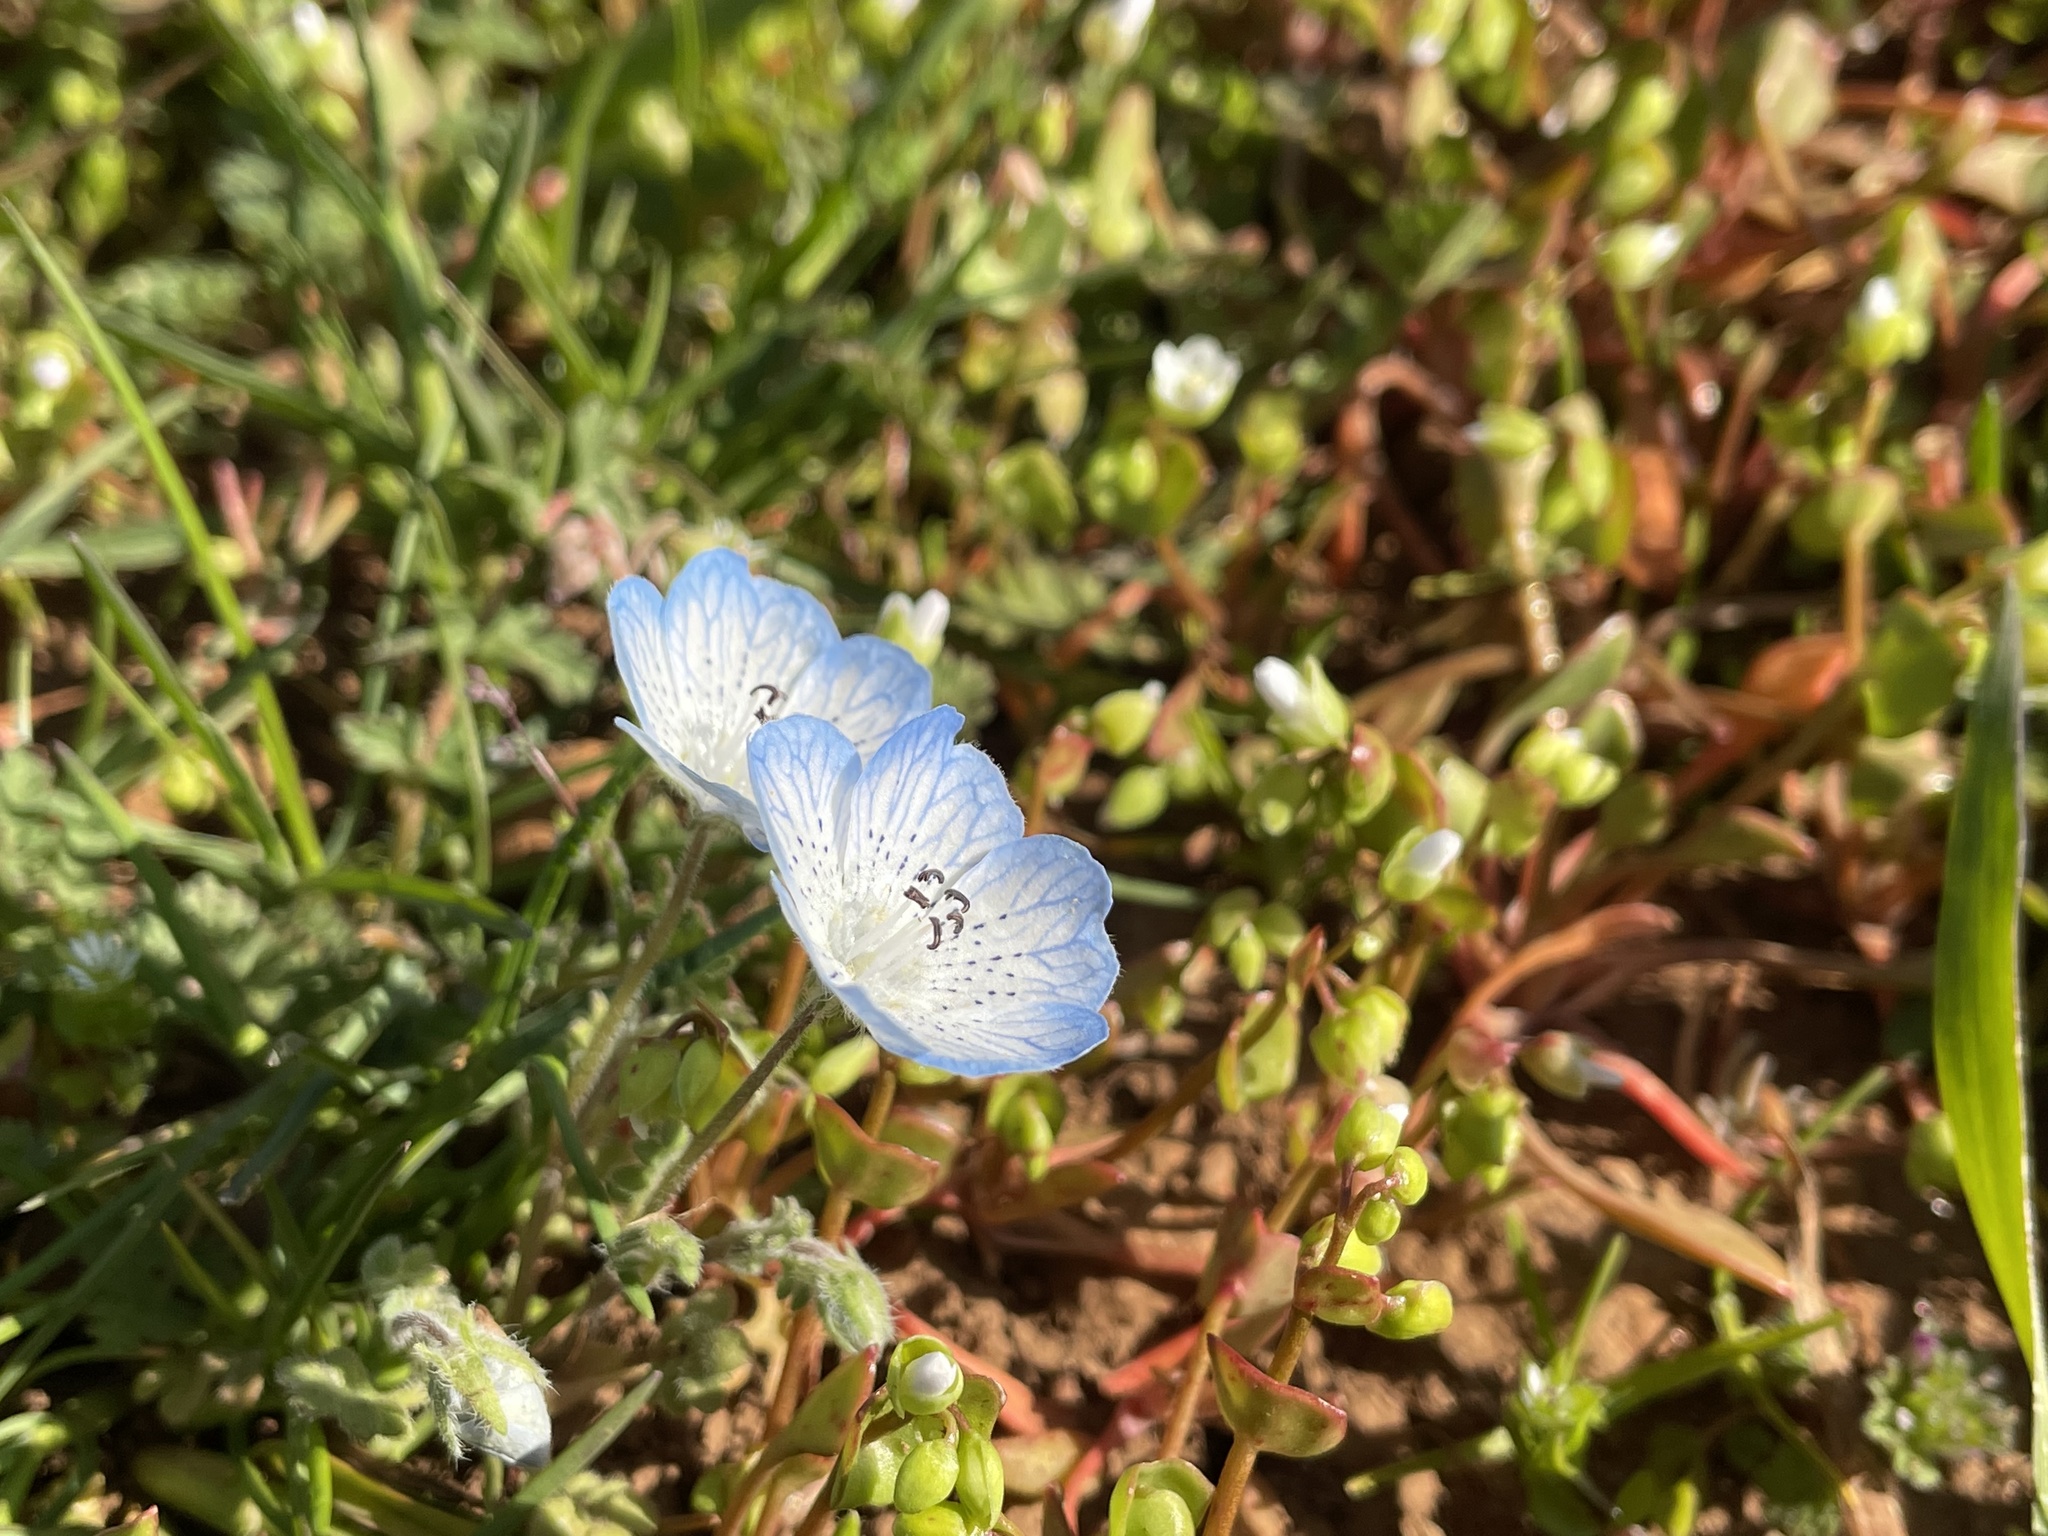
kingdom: Plantae
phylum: Tracheophyta
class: Magnoliopsida
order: Boraginales
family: Hydrophyllaceae
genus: Nemophila
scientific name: Nemophila menziesii
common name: Baby's-blue-eyes
